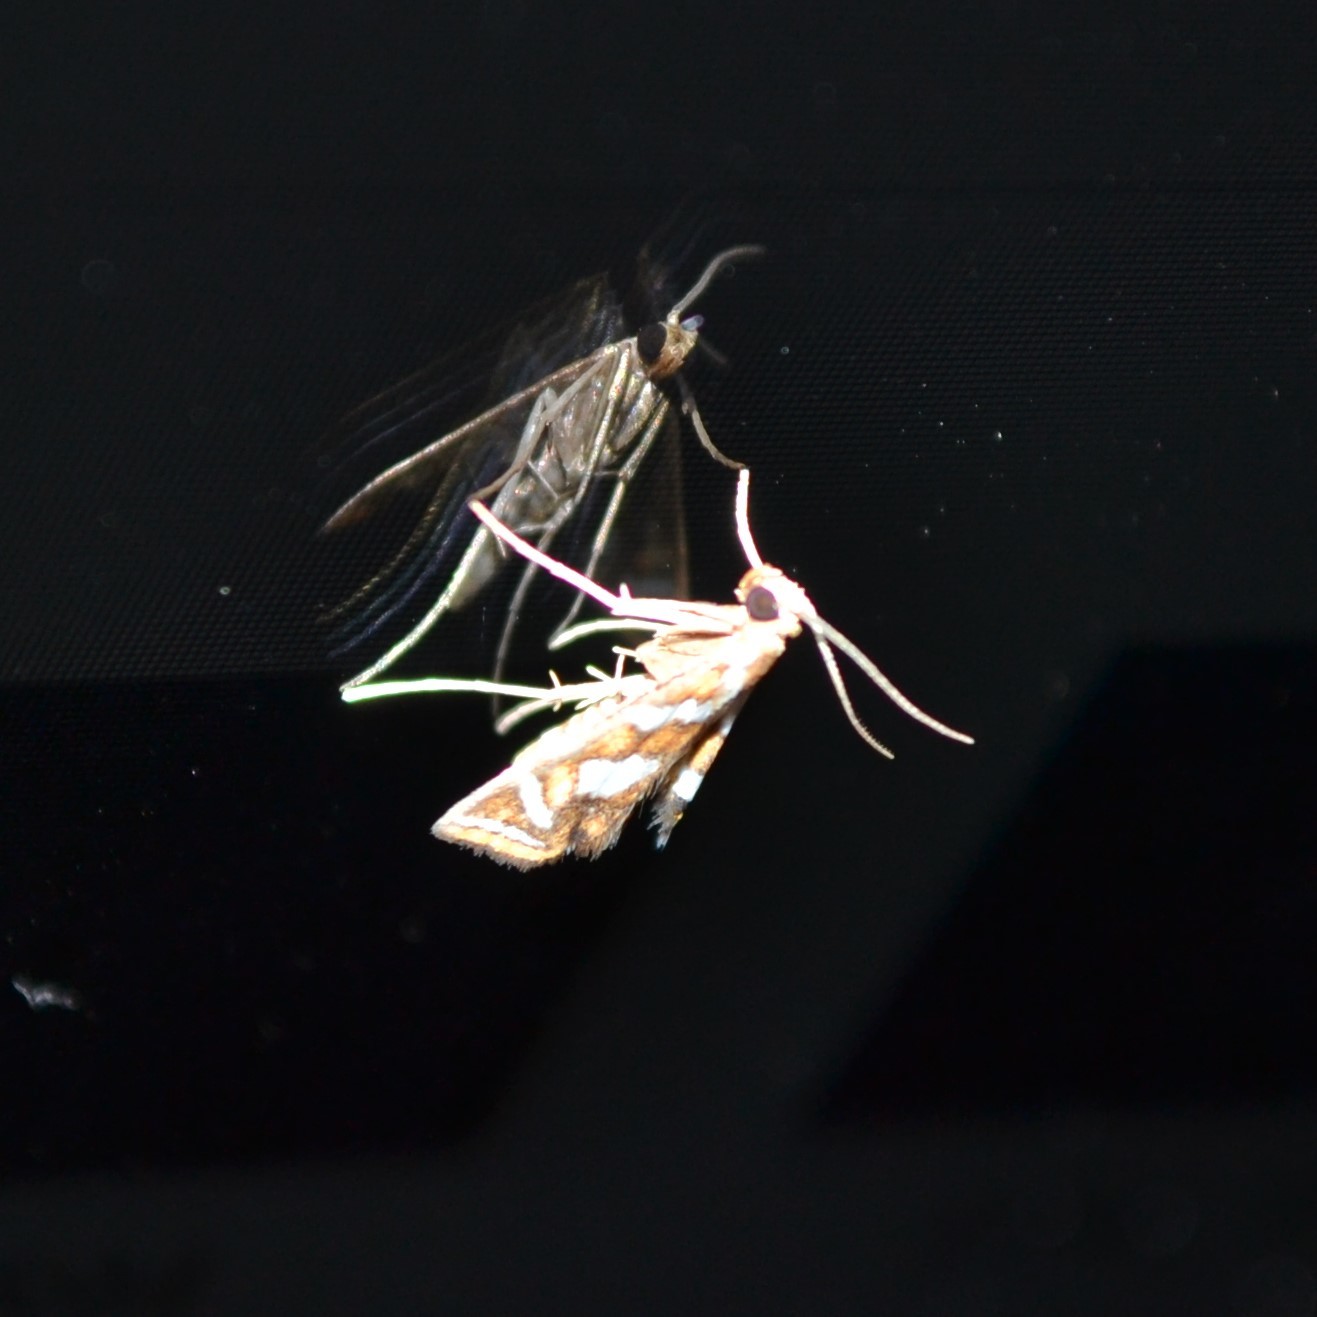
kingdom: Animalia
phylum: Arthropoda
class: Insecta
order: Lepidoptera
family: Crambidae
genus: Chrysendeton
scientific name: Chrysendeton medicinalis
